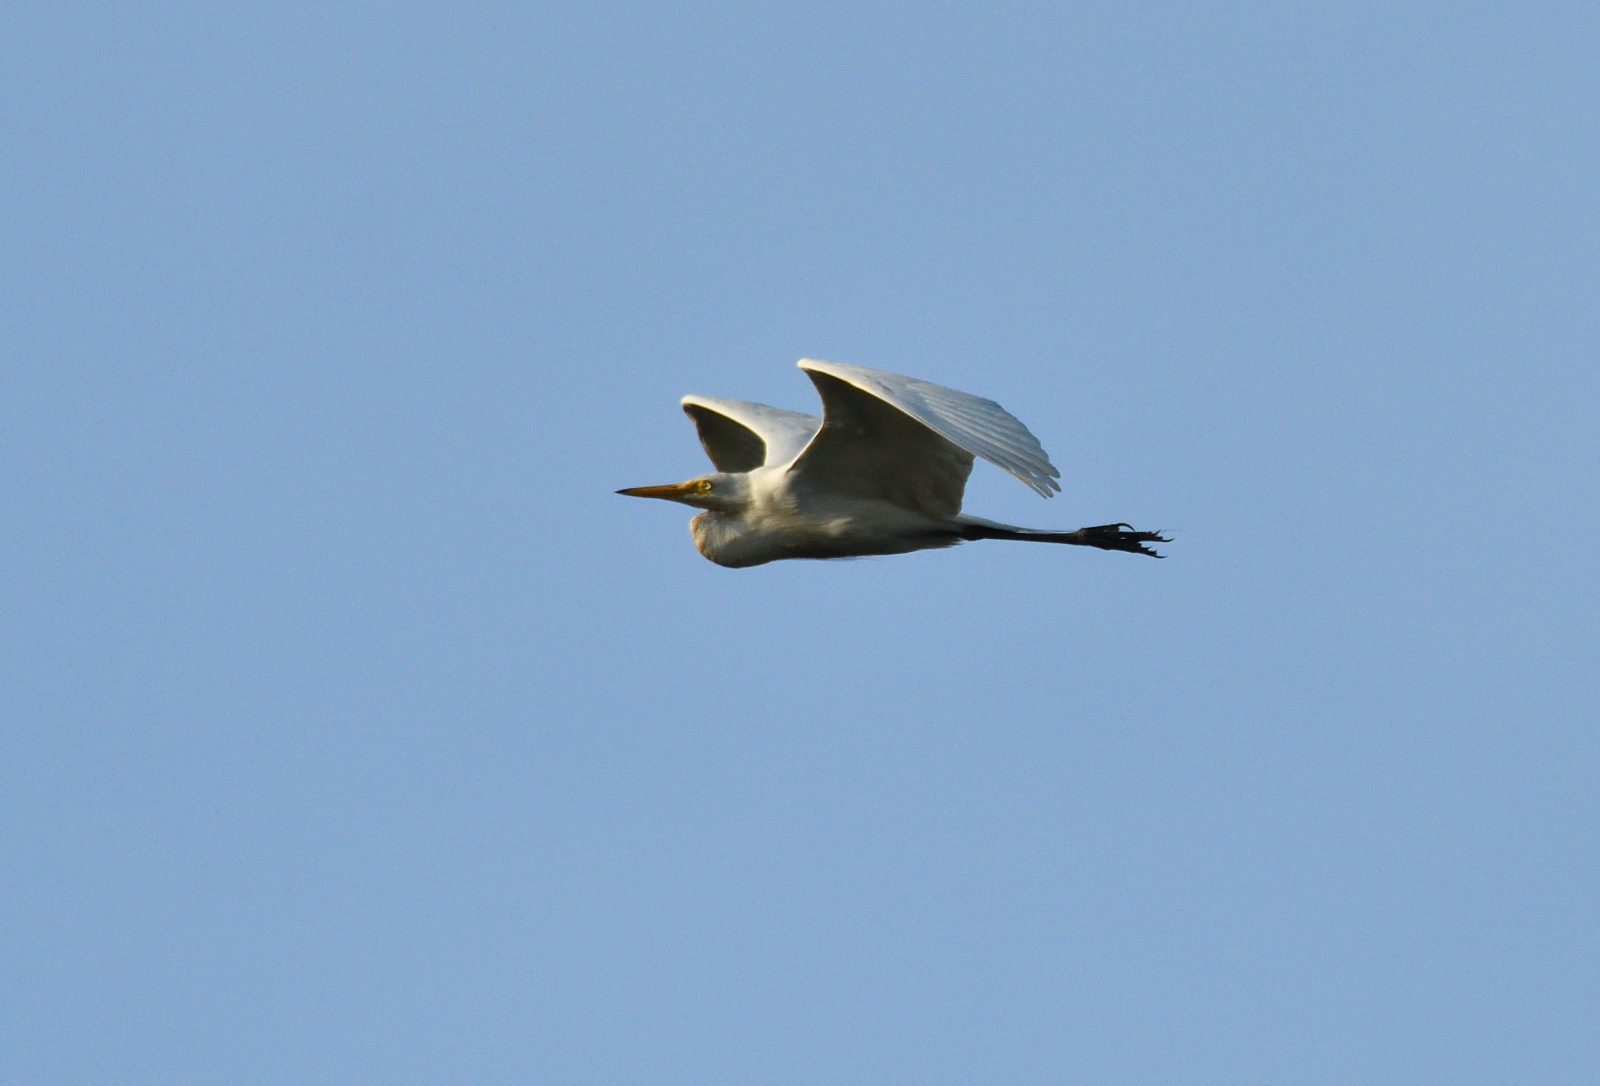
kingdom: Animalia
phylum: Chordata
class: Aves
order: Pelecaniformes
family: Ardeidae
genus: Bubulcus
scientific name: Bubulcus coromandus
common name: Eastern cattle egret
